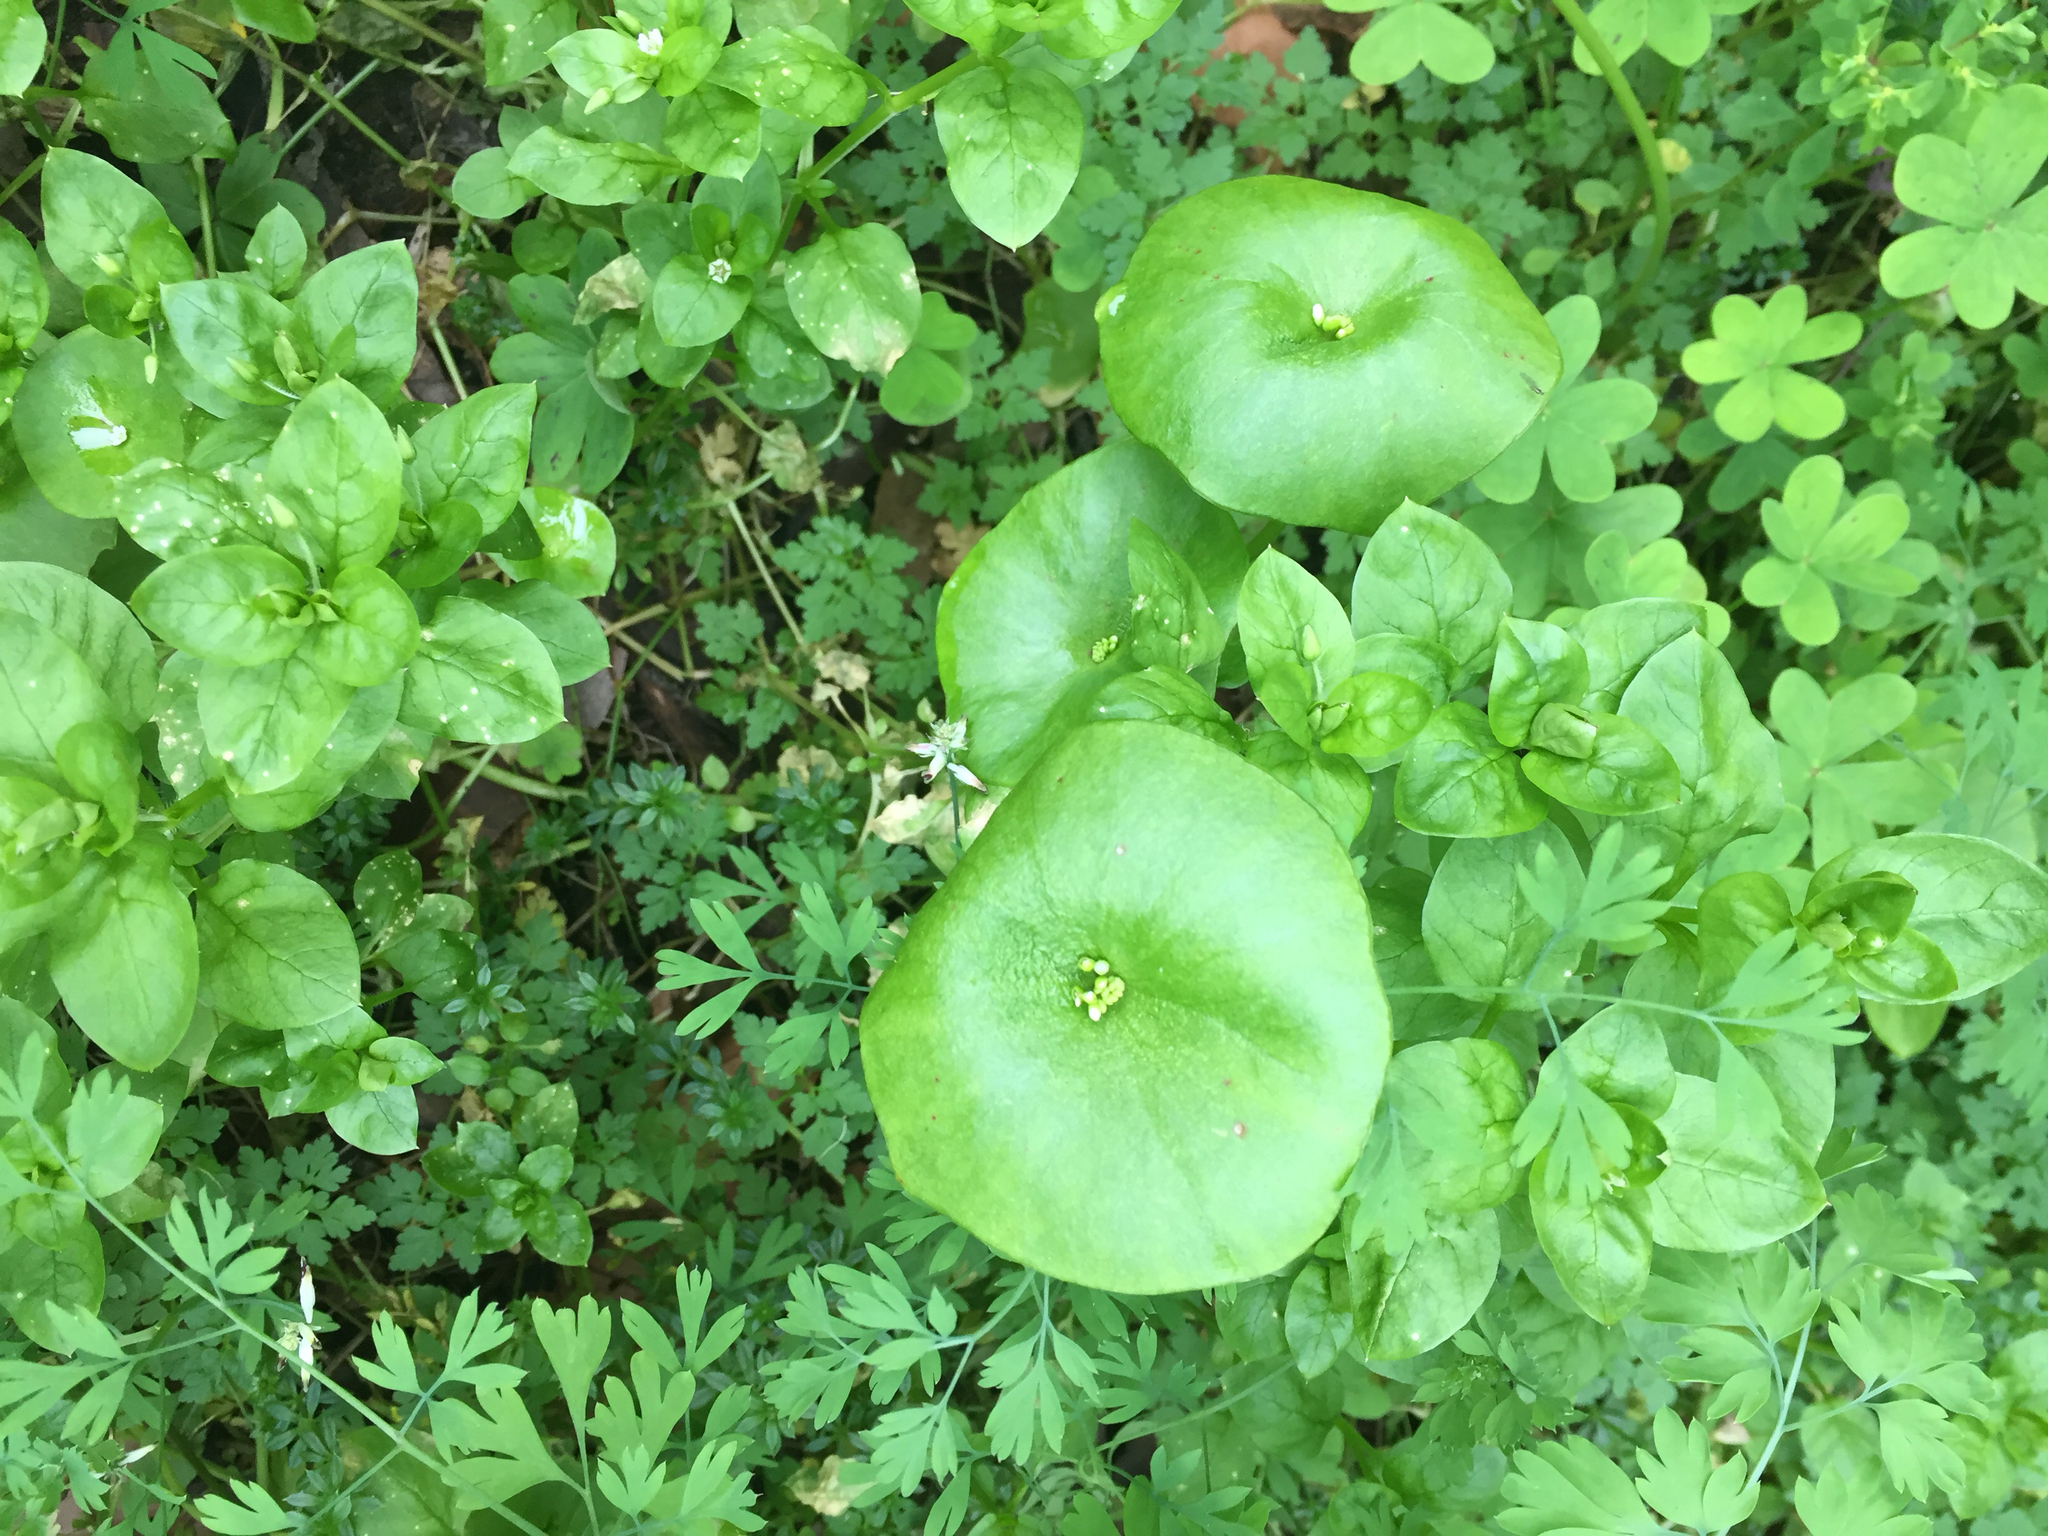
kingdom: Plantae
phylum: Tracheophyta
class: Magnoliopsida
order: Caryophyllales
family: Montiaceae
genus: Claytonia
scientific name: Claytonia perfoliata
